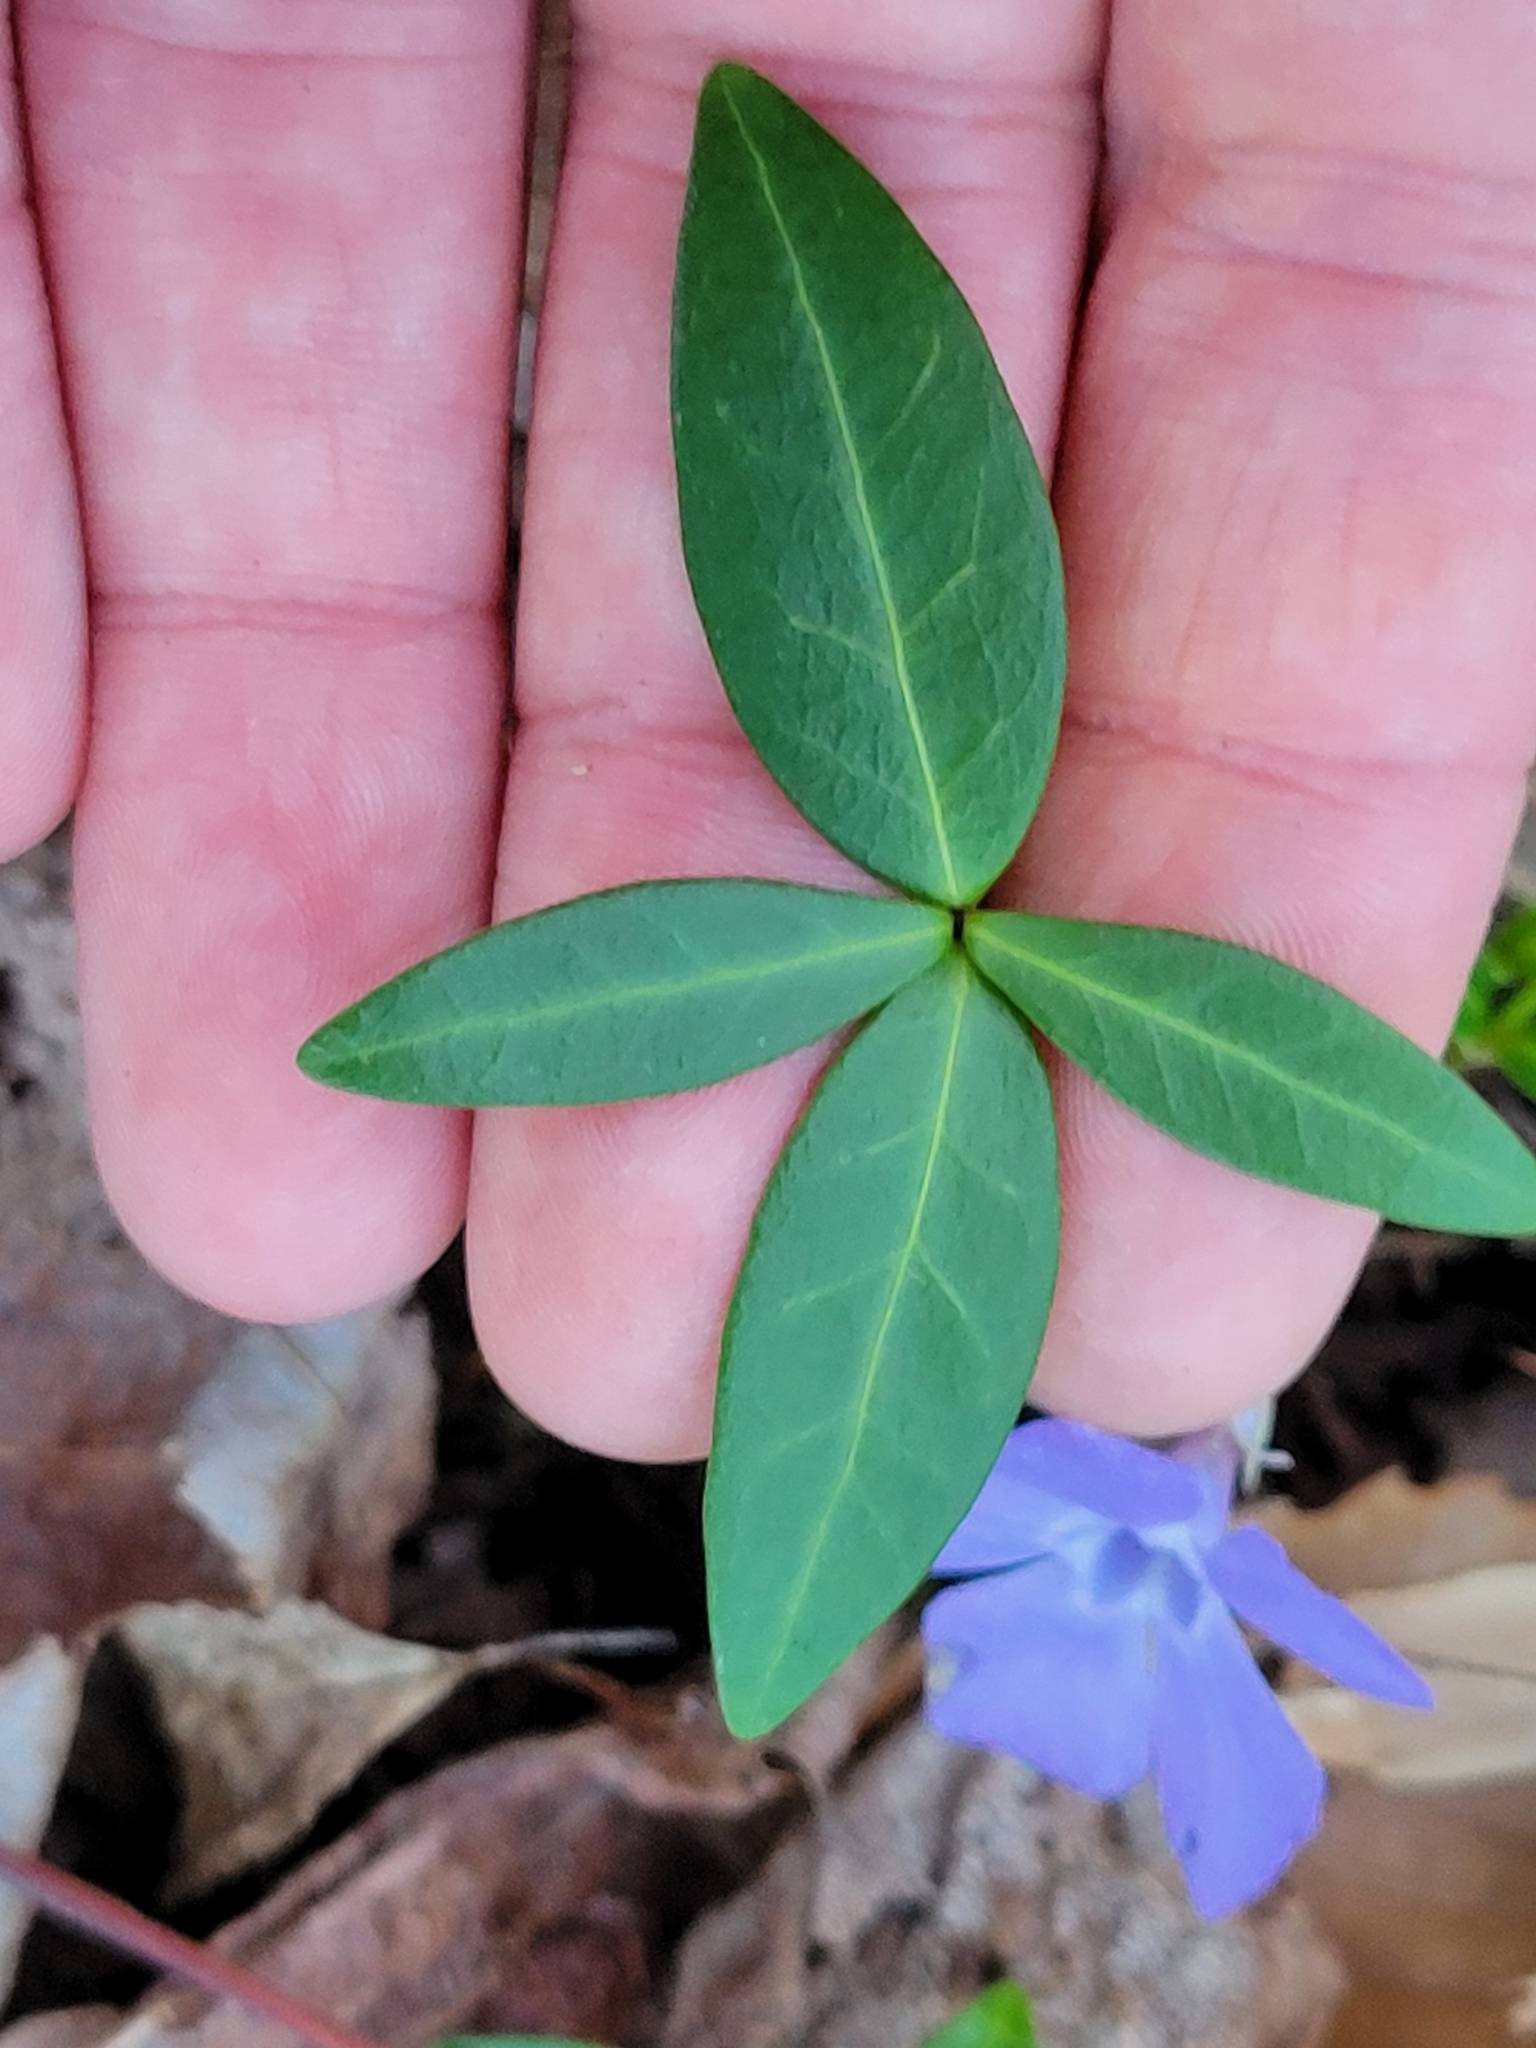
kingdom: Plantae
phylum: Tracheophyta
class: Magnoliopsida
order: Gentianales
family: Apocynaceae
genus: Vinca
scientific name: Vinca minor
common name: Lesser periwinkle
